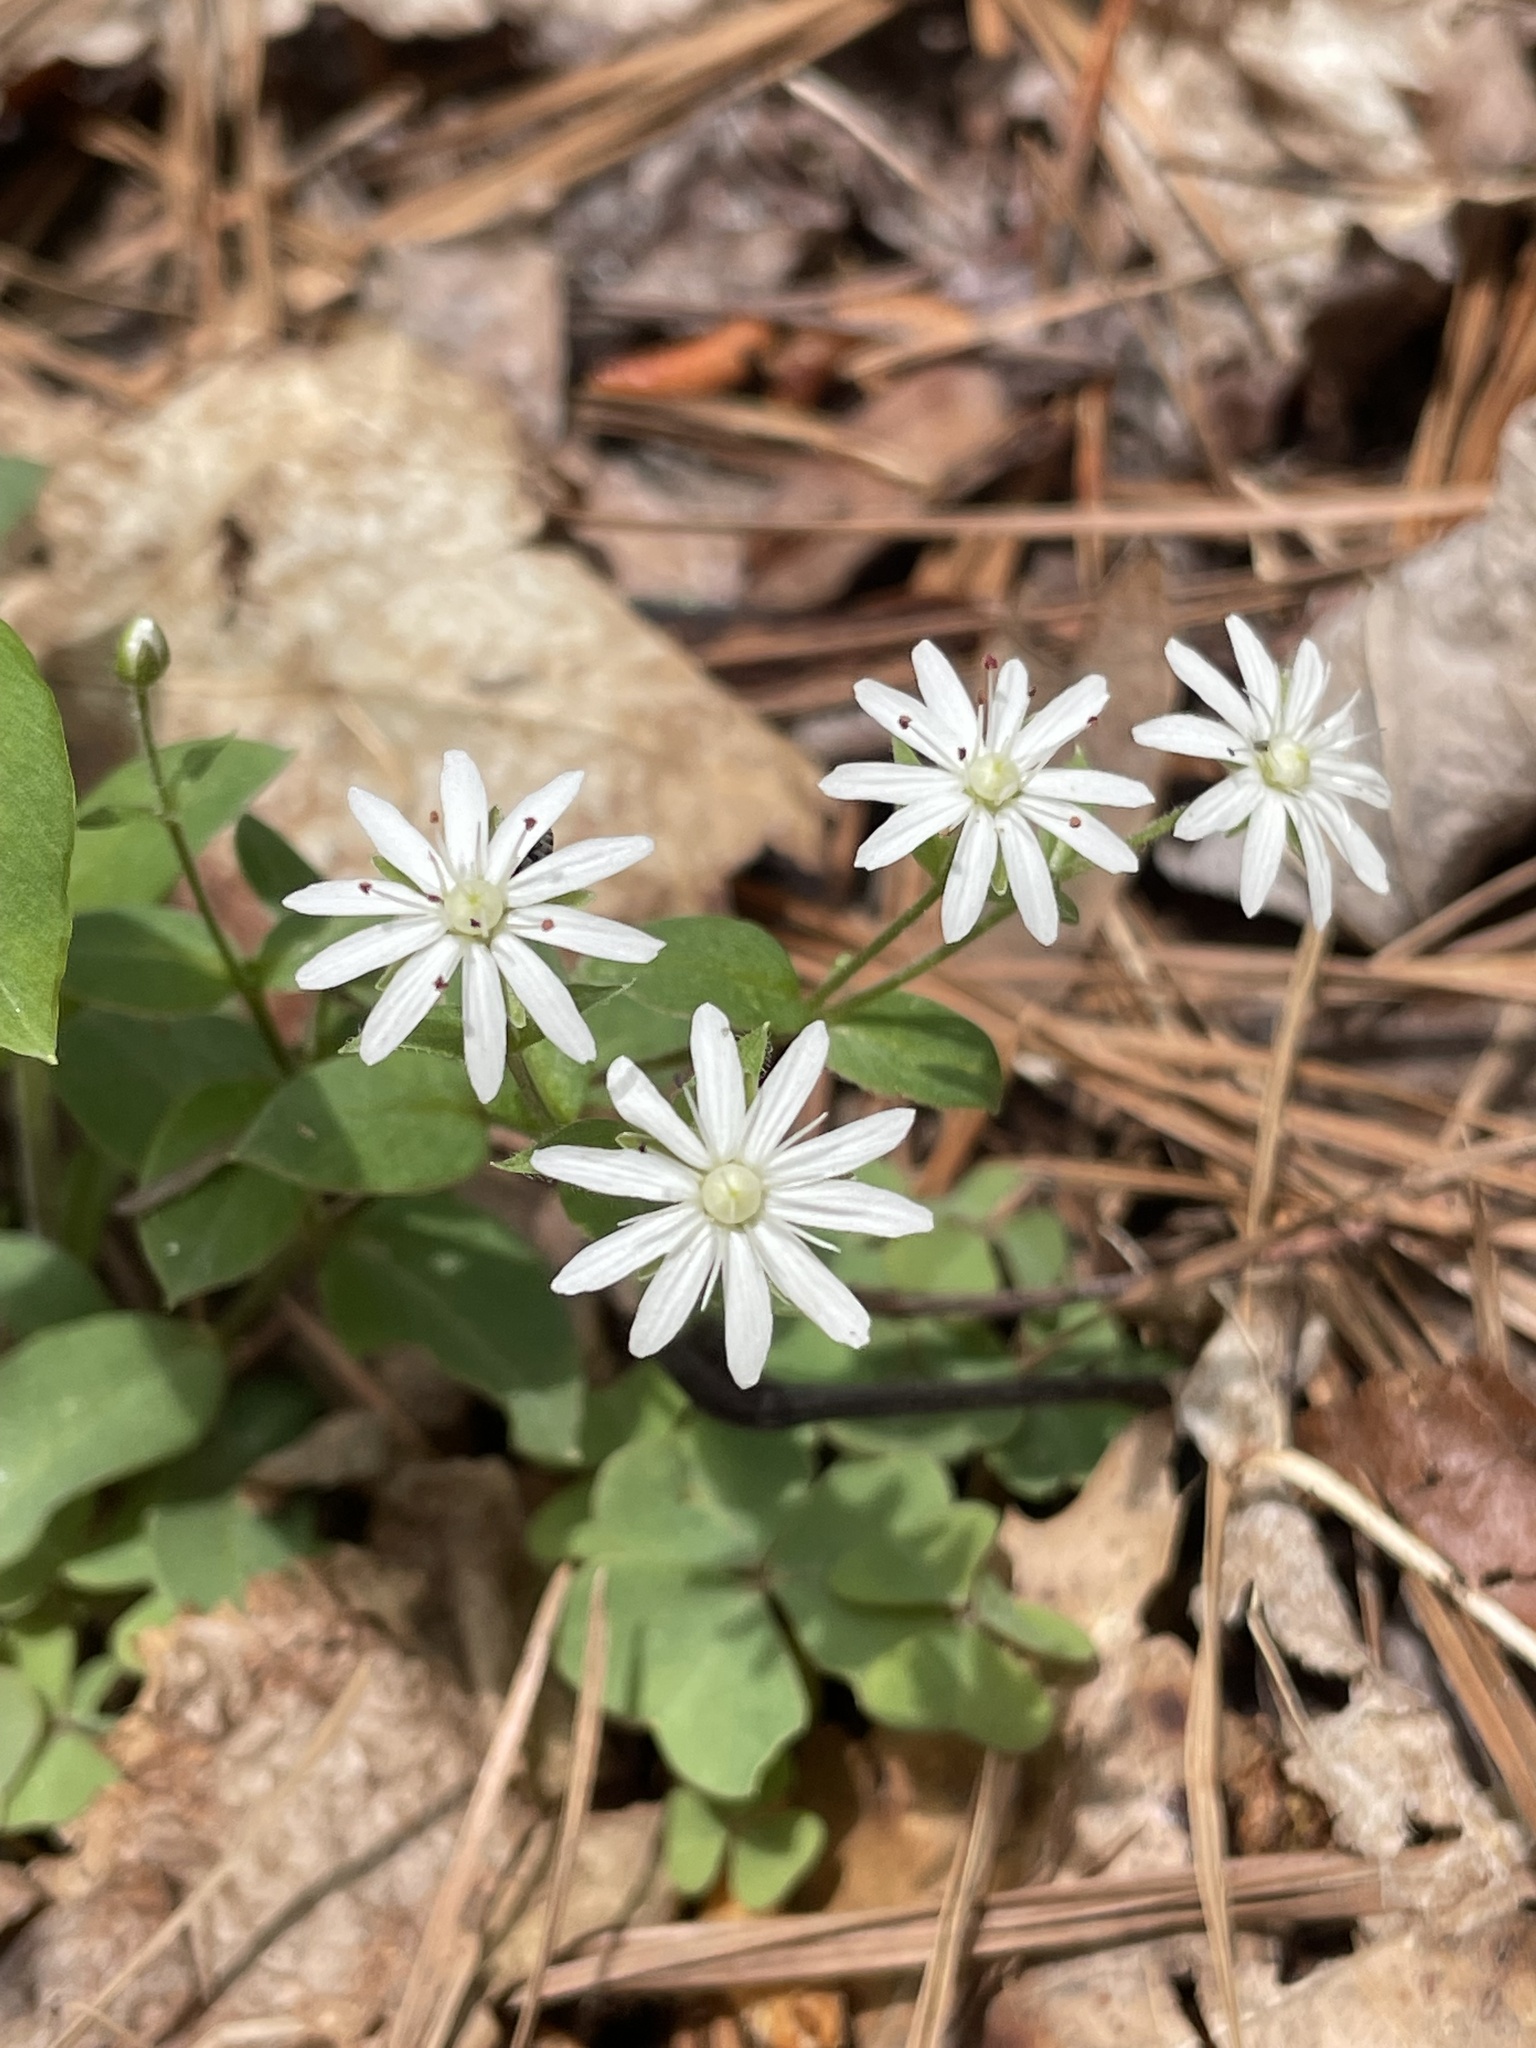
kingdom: Plantae
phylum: Tracheophyta
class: Magnoliopsida
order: Caryophyllales
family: Caryophyllaceae
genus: Stellaria
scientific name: Stellaria pubera
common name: Star chickweed
